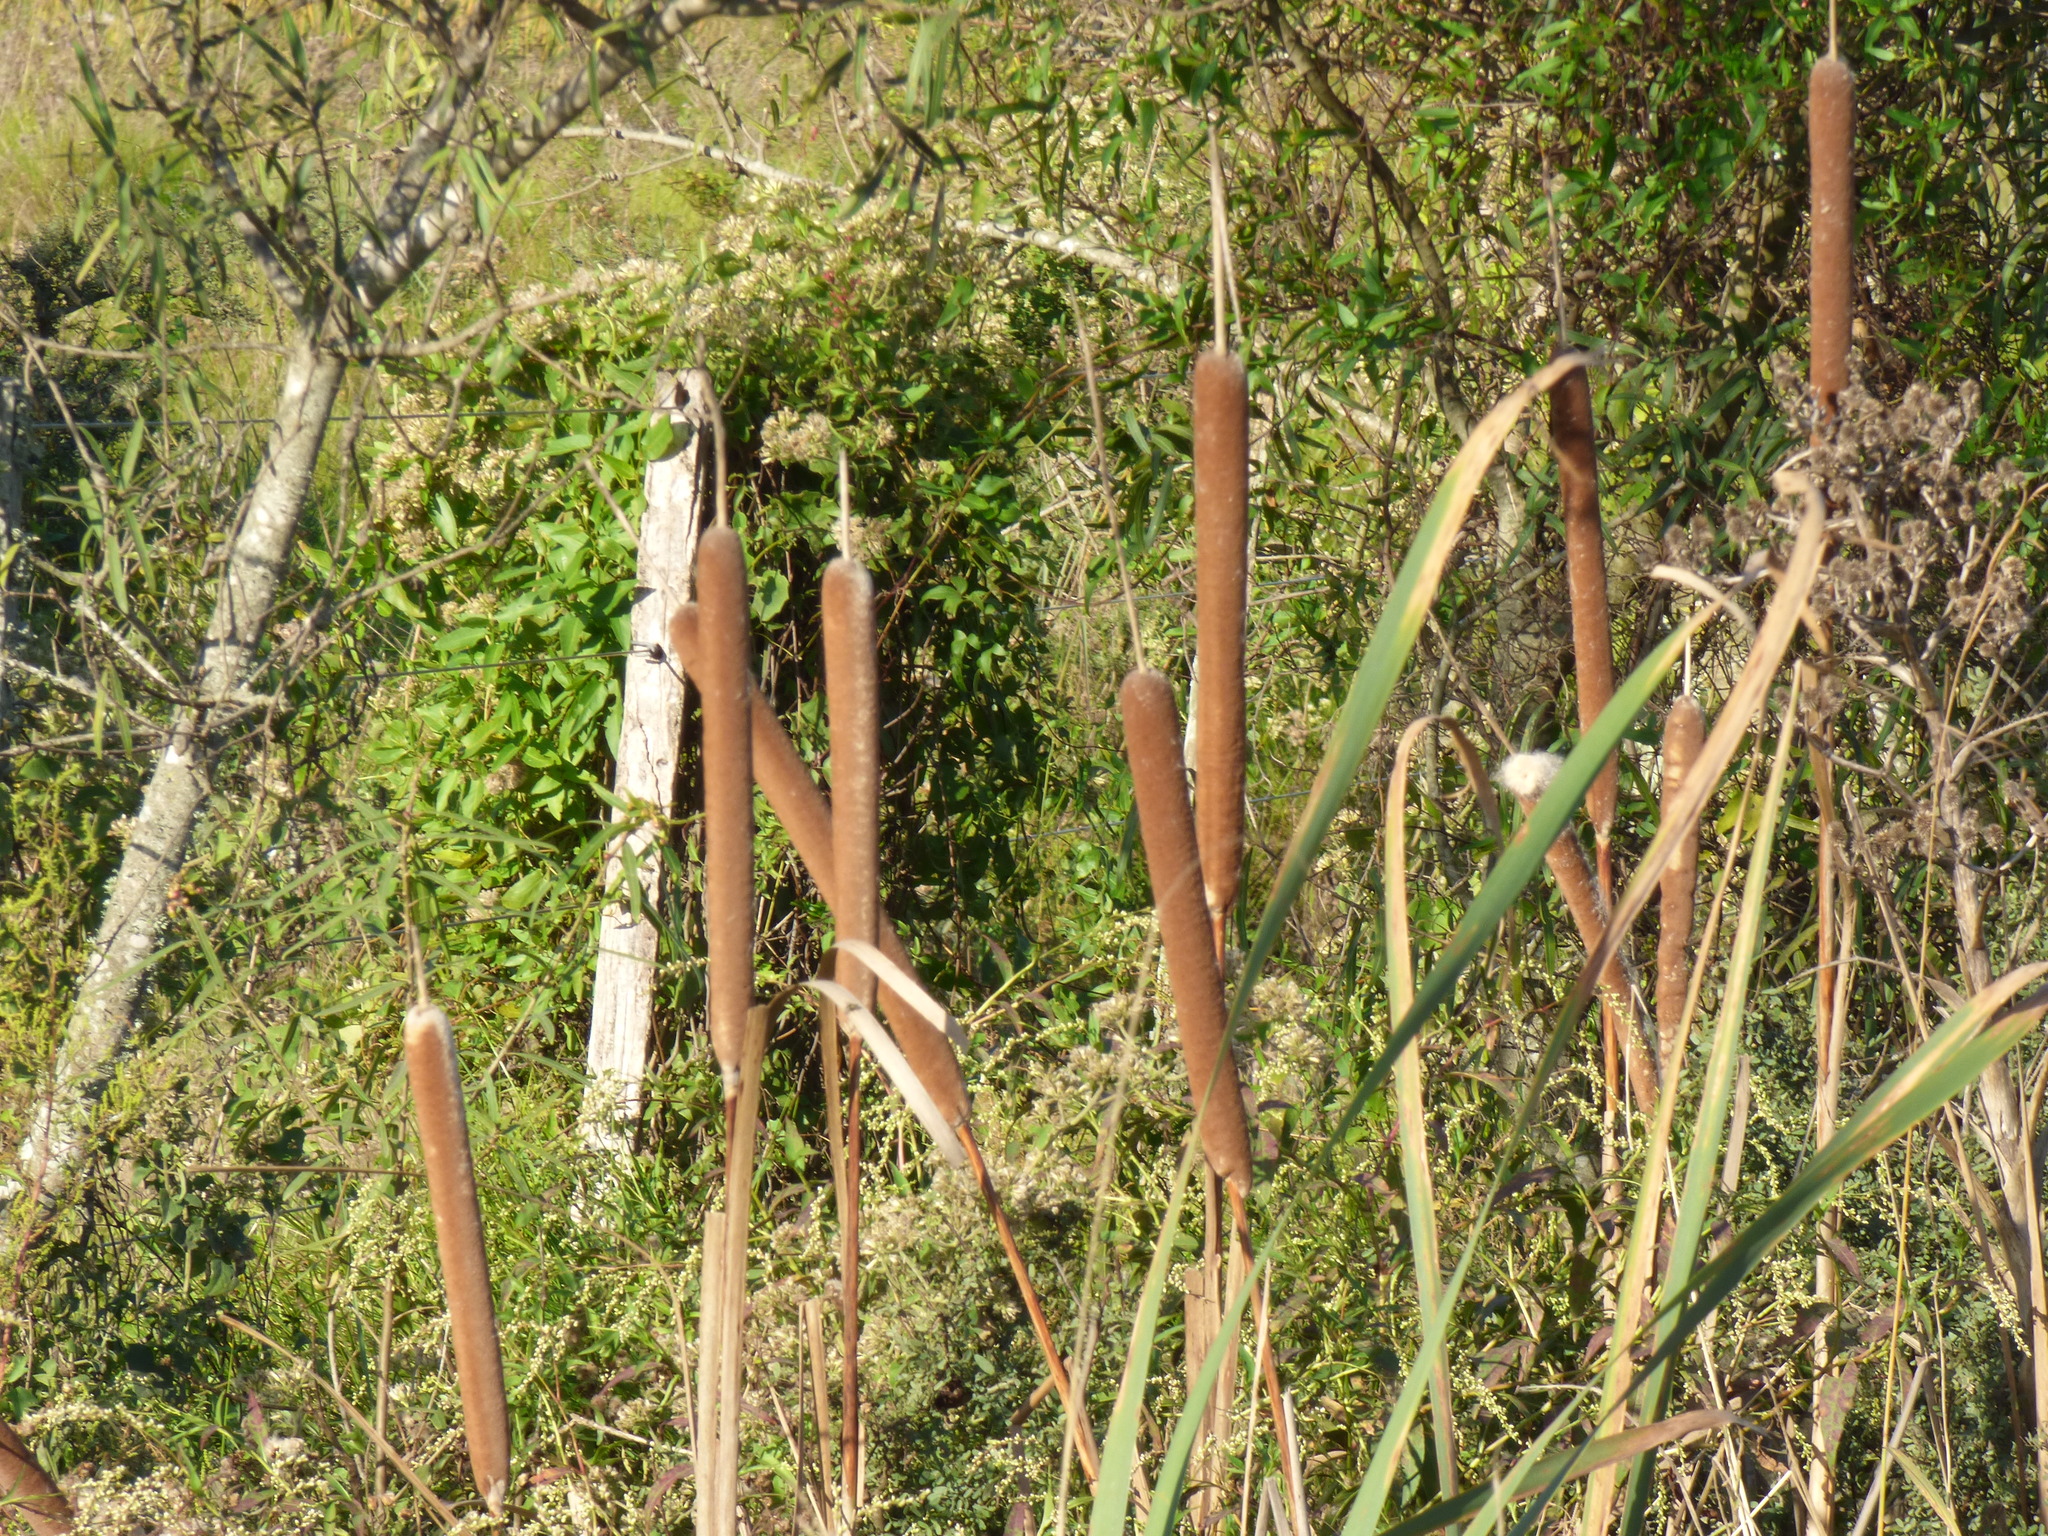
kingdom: Plantae
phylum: Tracheophyta
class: Liliopsida
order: Poales
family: Typhaceae
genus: Typha
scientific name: Typha latifolia
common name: Broadleaf cattail
